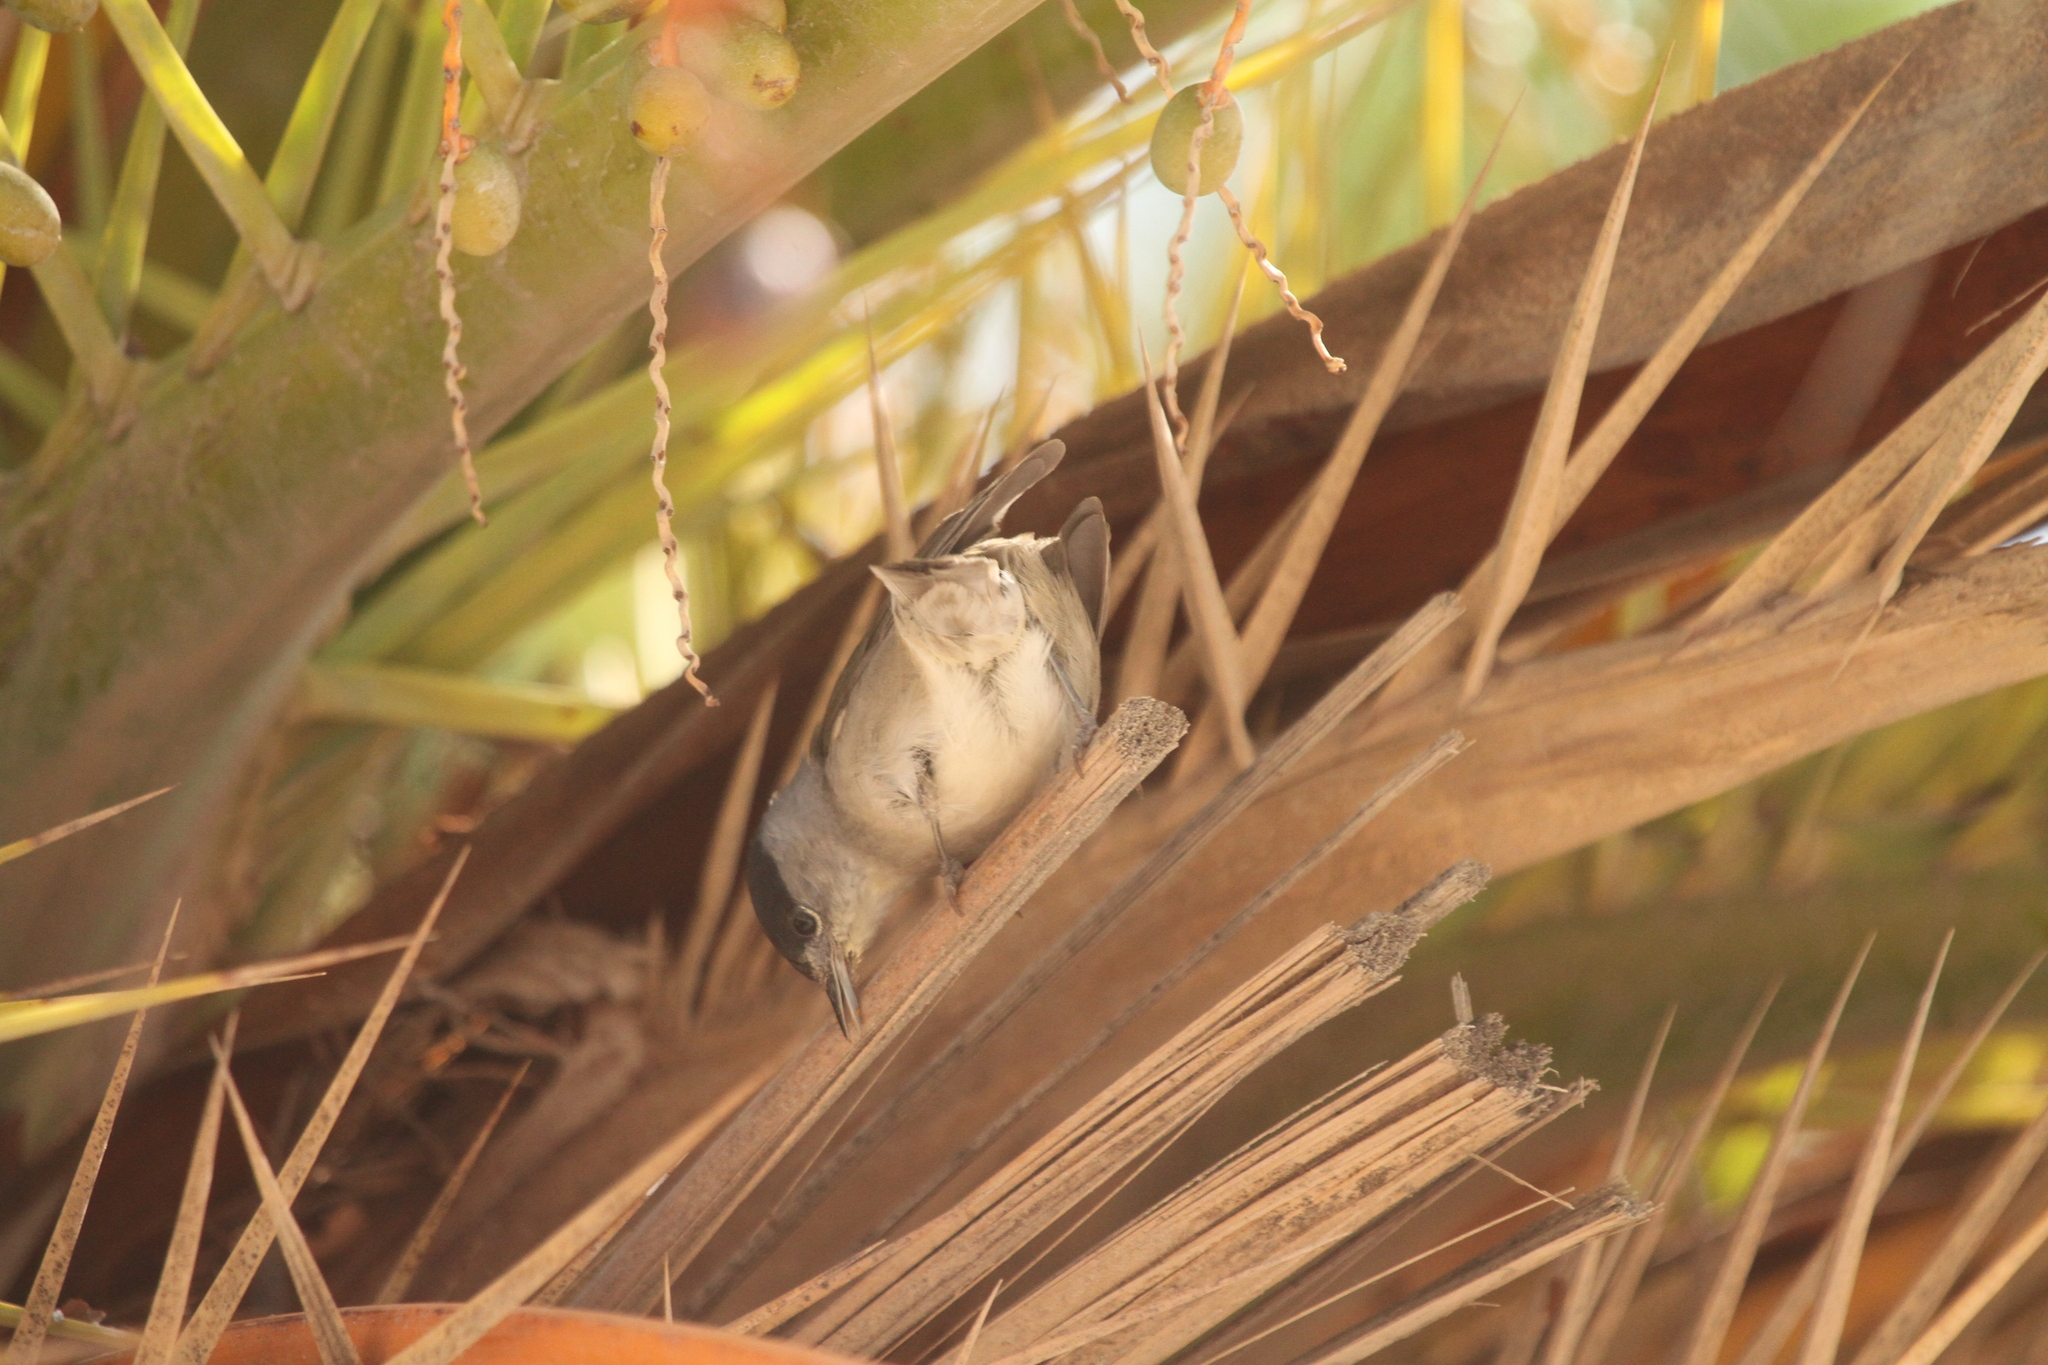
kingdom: Animalia
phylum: Chordata
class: Aves
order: Passeriformes
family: Sylviidae
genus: Sylvia
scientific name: Sylvia atricapilla
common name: Eurasian blackcap
